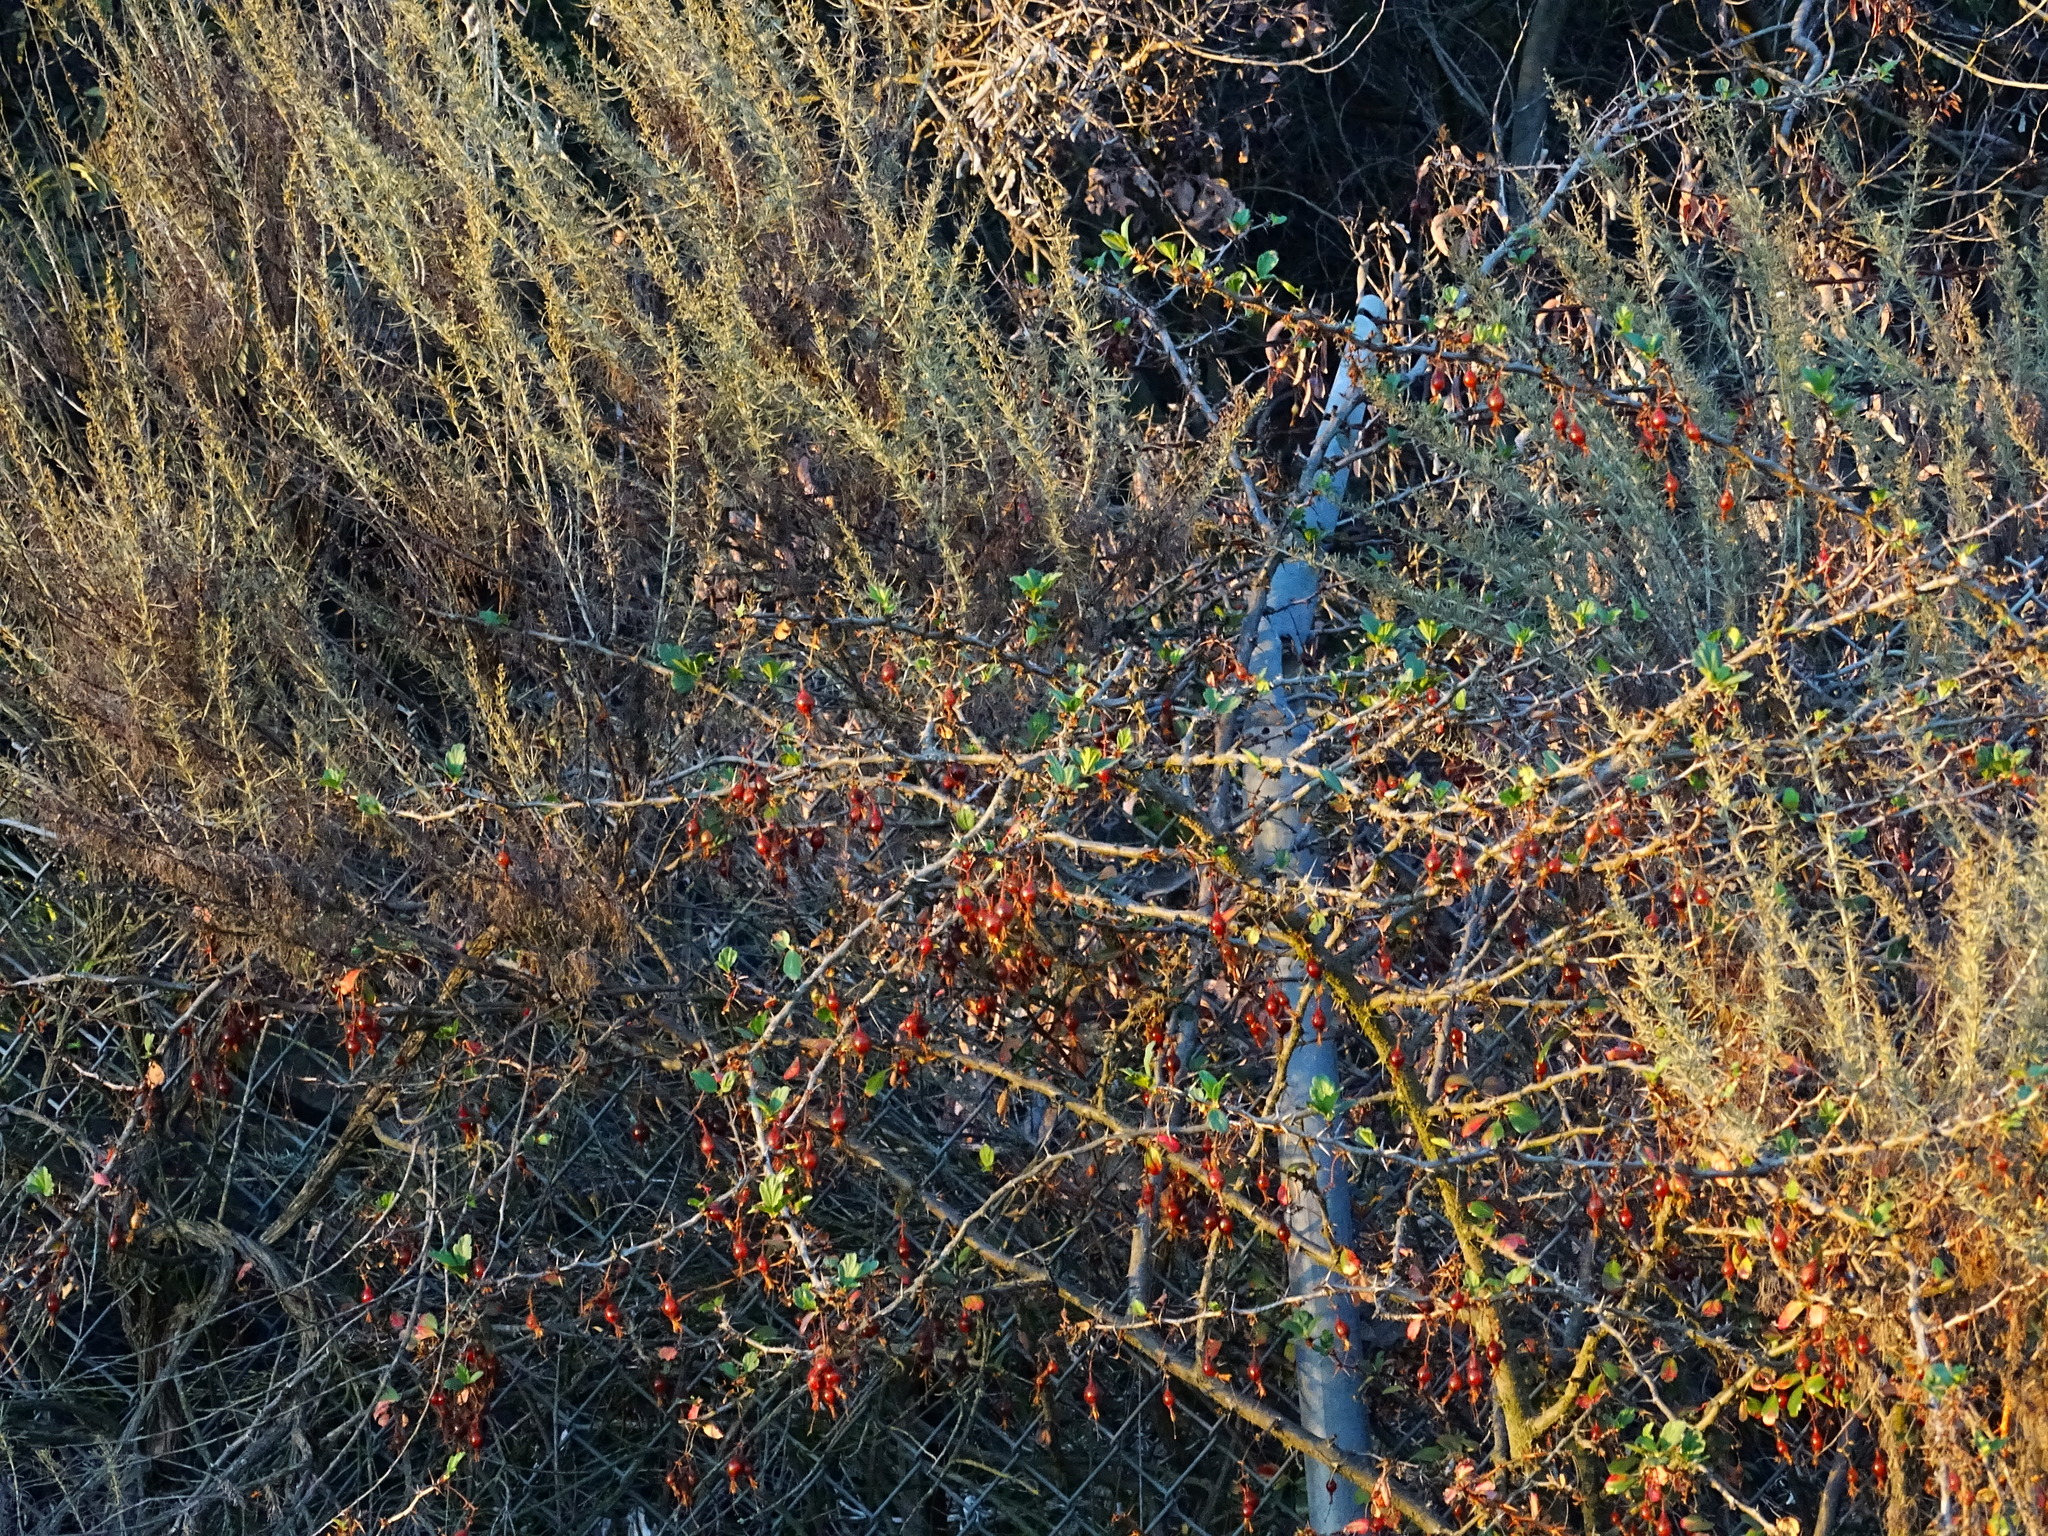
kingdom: Plantae
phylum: Tracheophyta
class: Magnoliopsida
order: Saxifragales
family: Grossulariaceae
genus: Ribes
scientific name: Ribes speciosum
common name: Fuchsia-flower gooseberry
